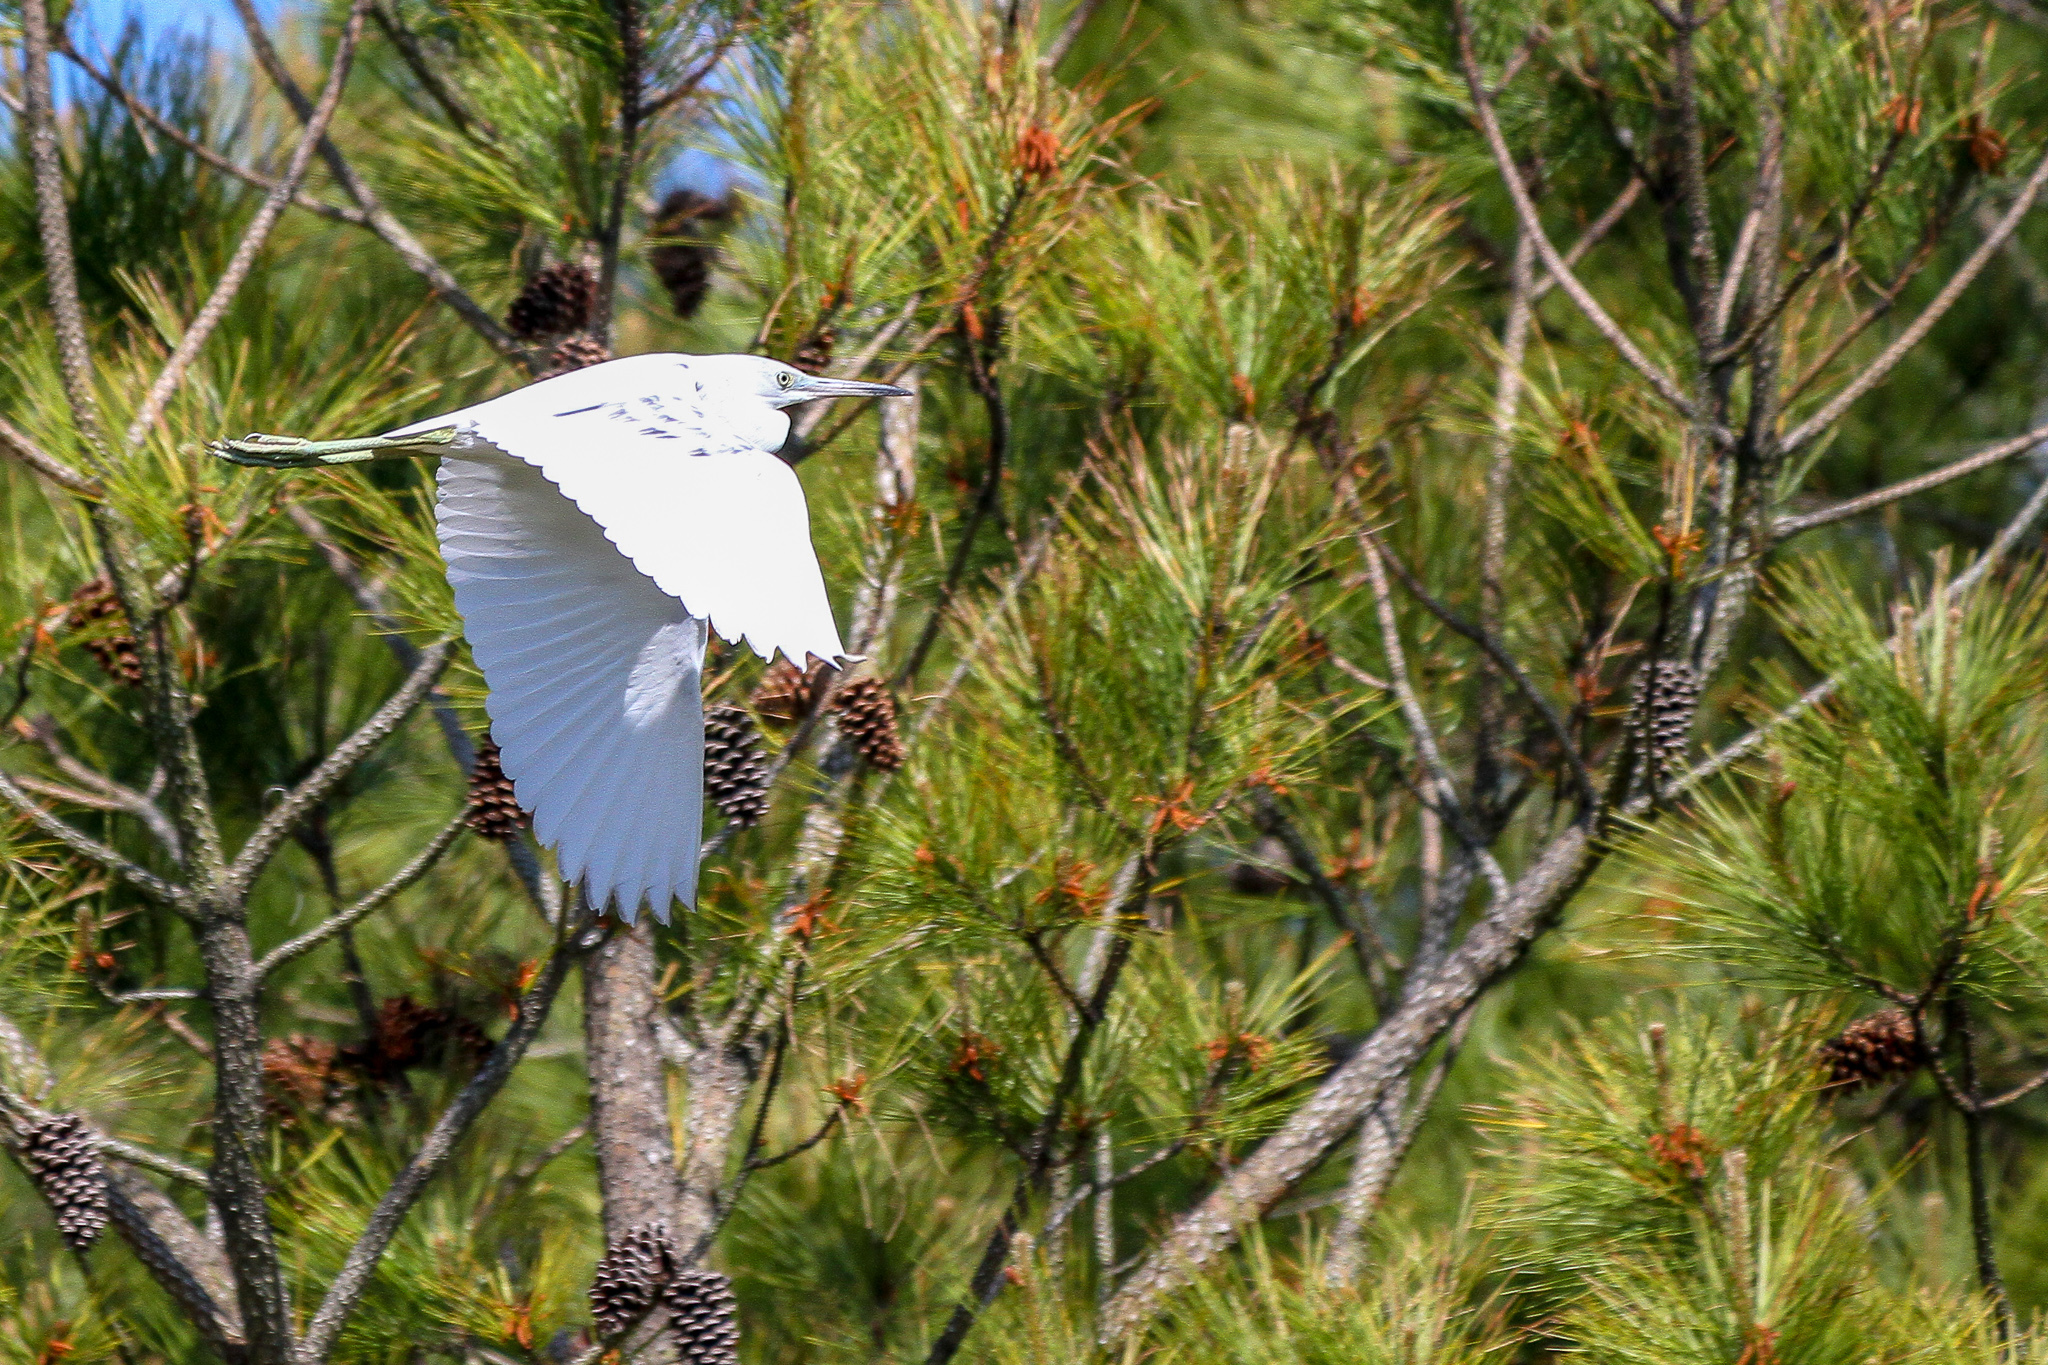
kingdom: Animalia
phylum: Chordata
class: Aves
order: Pelecaniformes
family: Ardeidae
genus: Egretta
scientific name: Egretta caerulea
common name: Little blue heron
